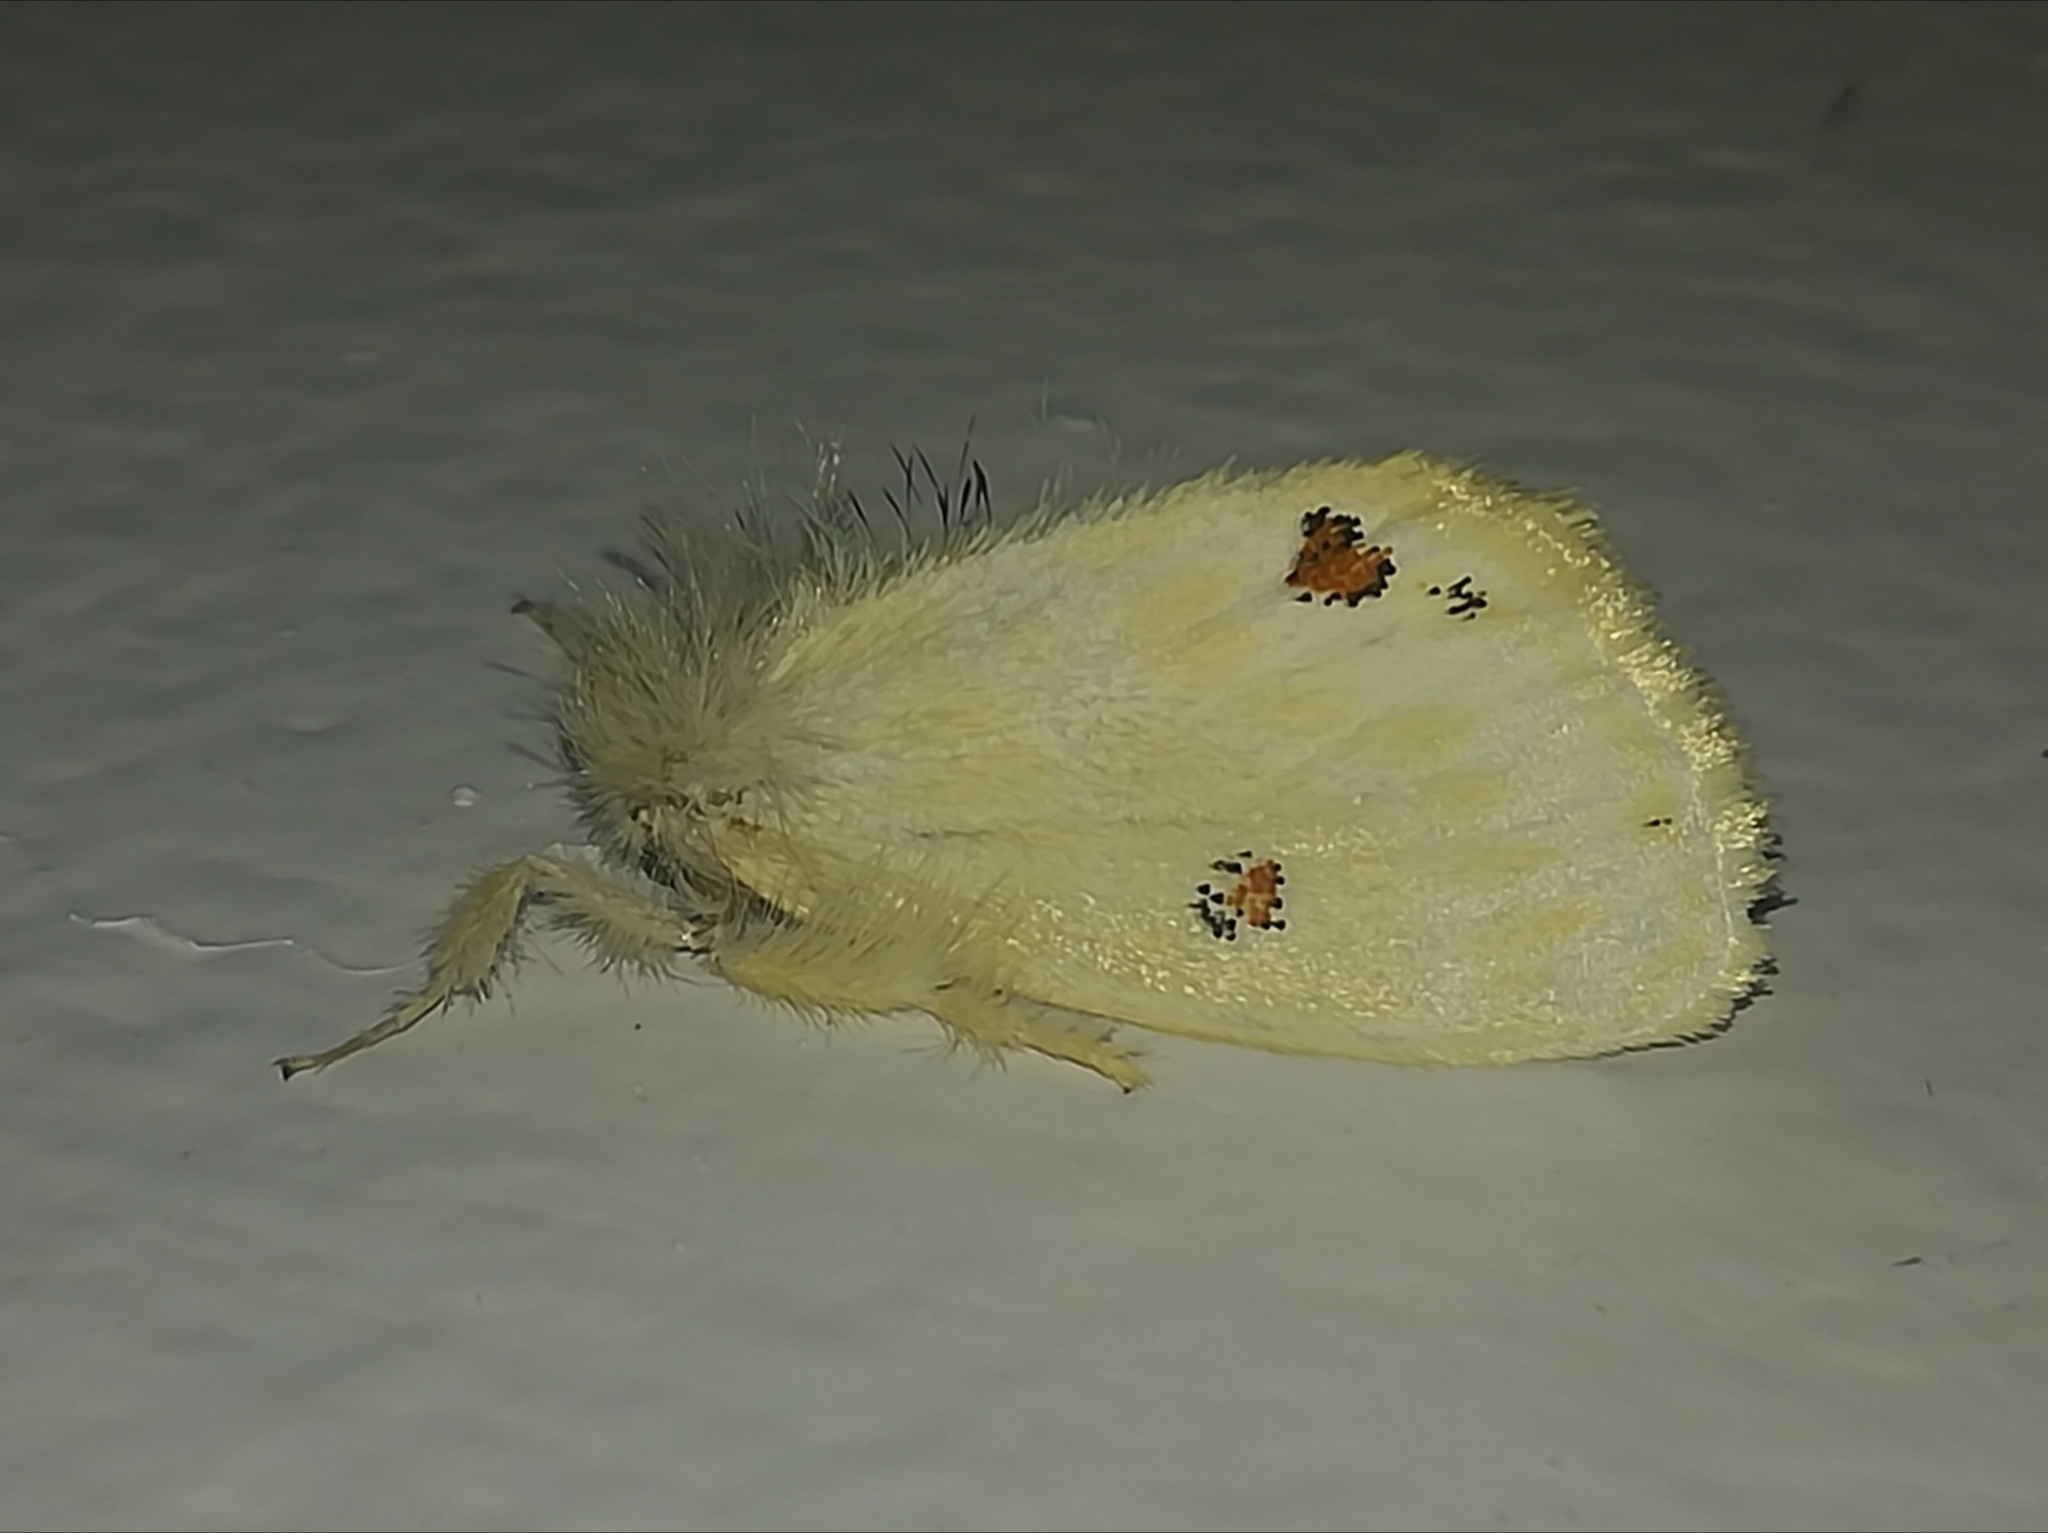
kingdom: Animalia
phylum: Arthropoda
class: Insecta
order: Lepidoptera
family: Erebidae
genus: Euproctis
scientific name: Euproctis haemodetes
